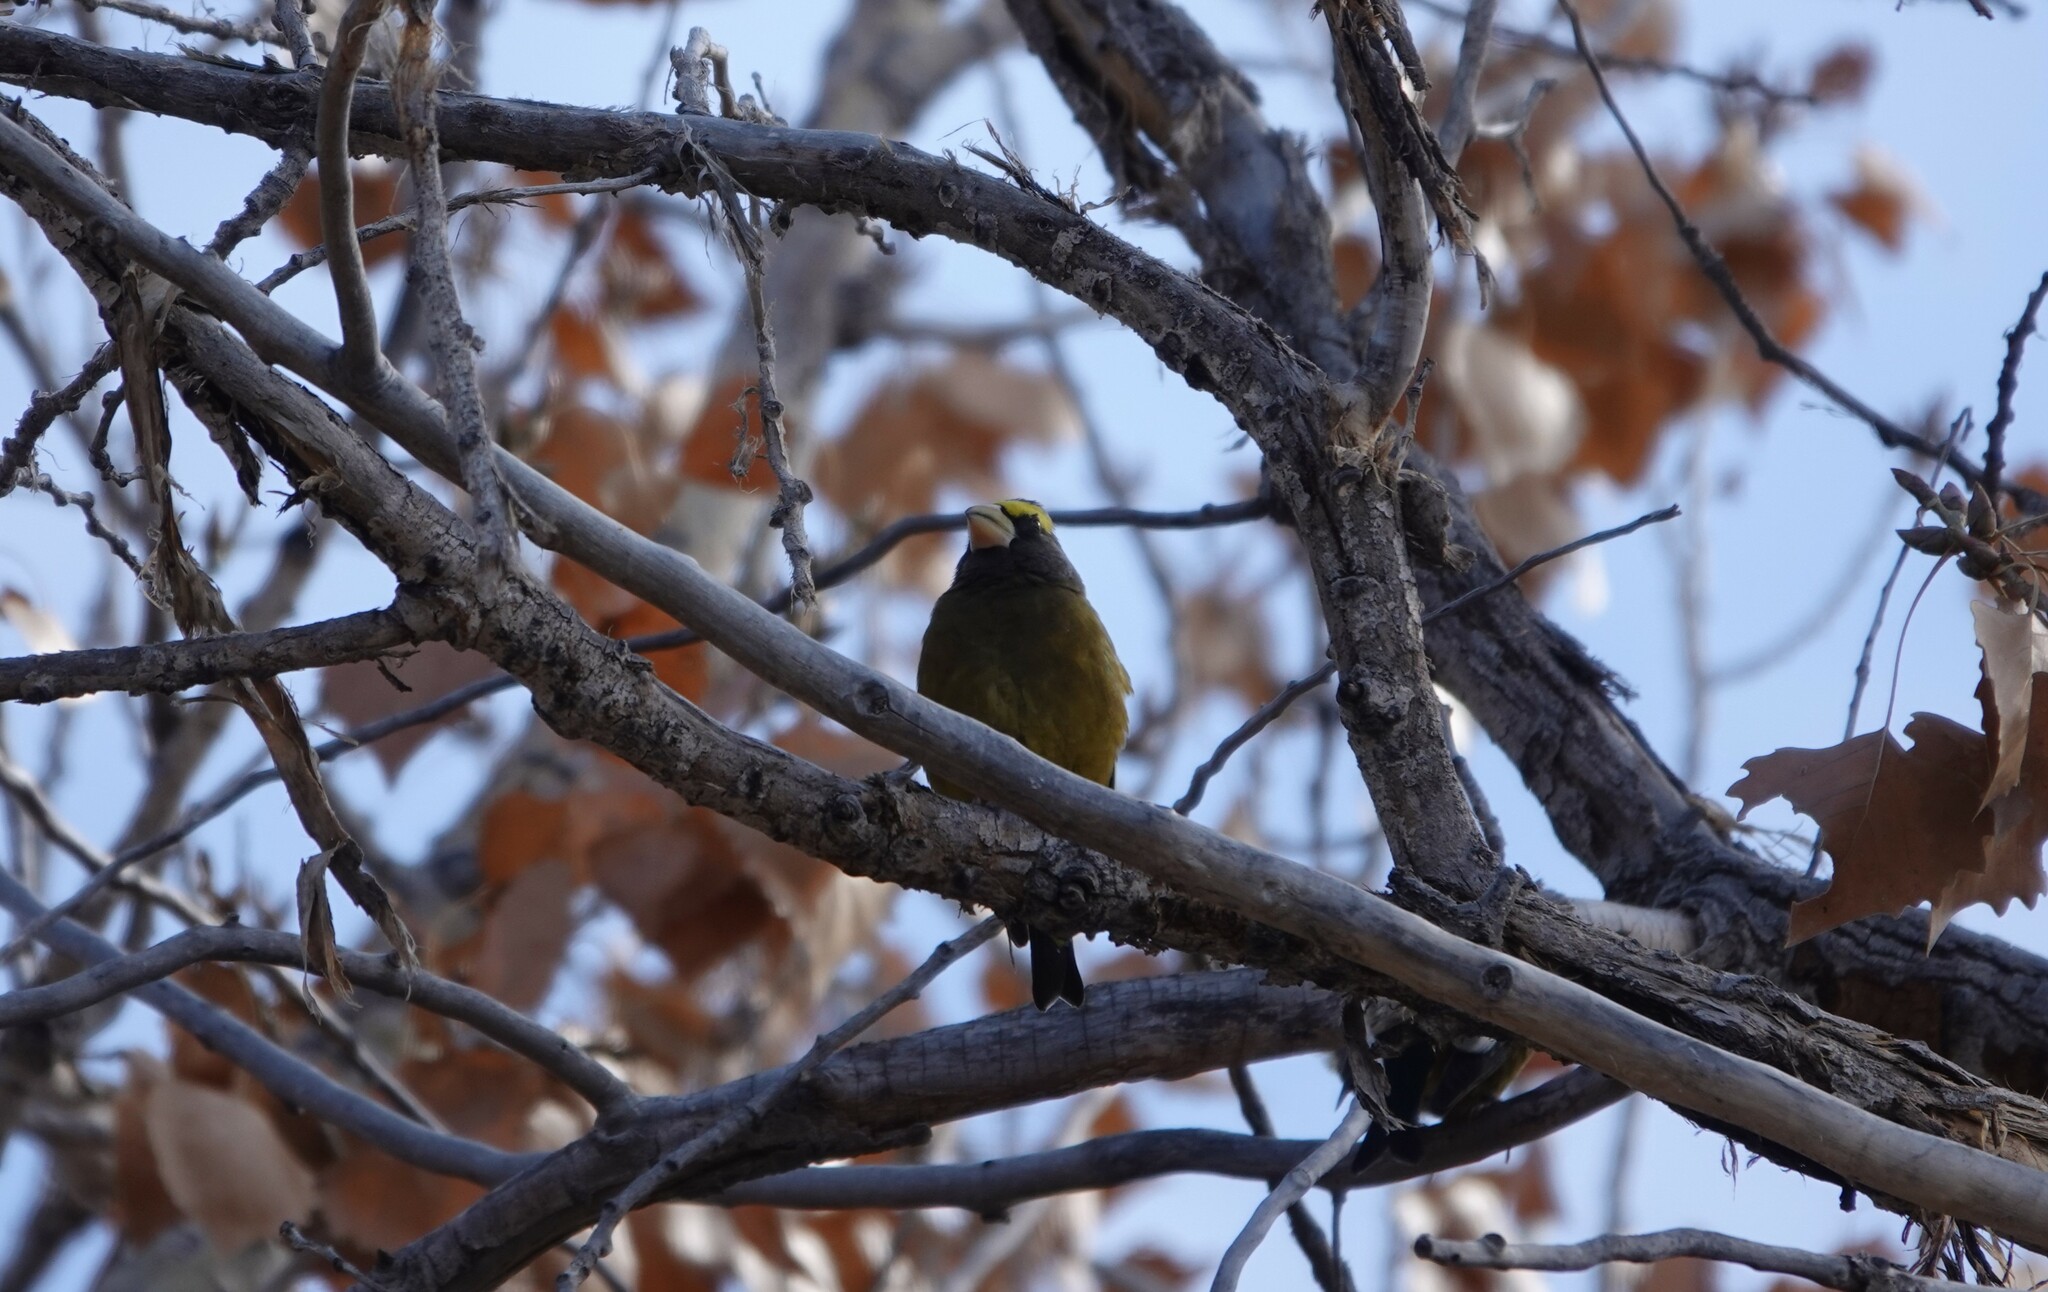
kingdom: Animalia
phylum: Chordata
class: Aves
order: Passeriformes
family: Fringillidae
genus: Hesperiphona
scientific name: Hesperiphona vespertina
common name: Evening grosbeak
